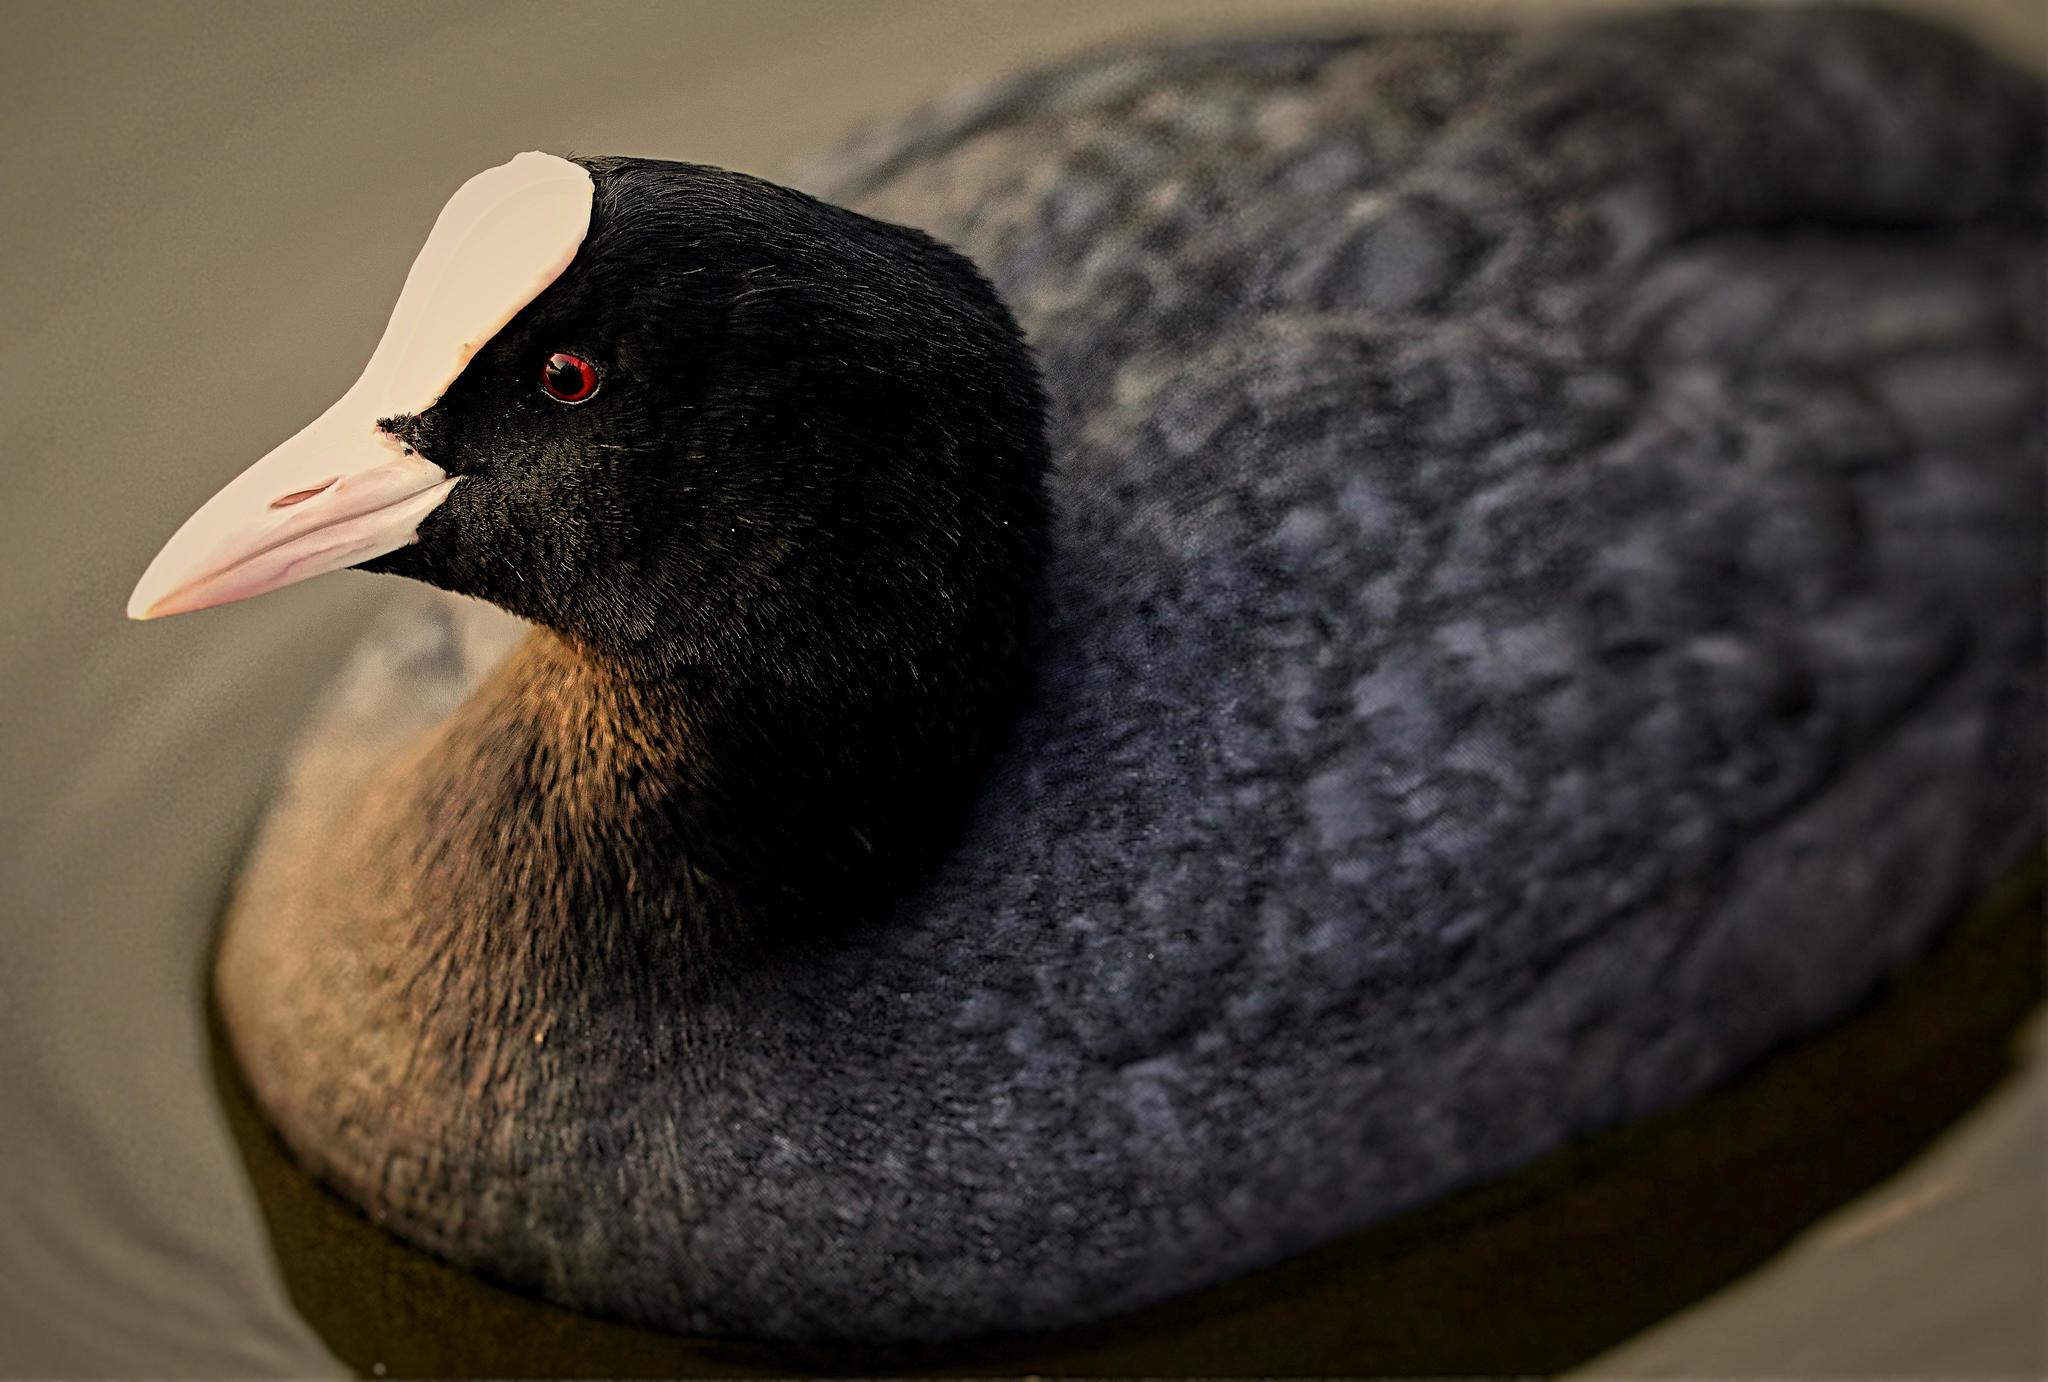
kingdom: Animalia
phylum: Chordata
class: Aves
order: Gruiformes
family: Rallidae
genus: Fulica
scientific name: Fulica atra
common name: Eurasian coot
